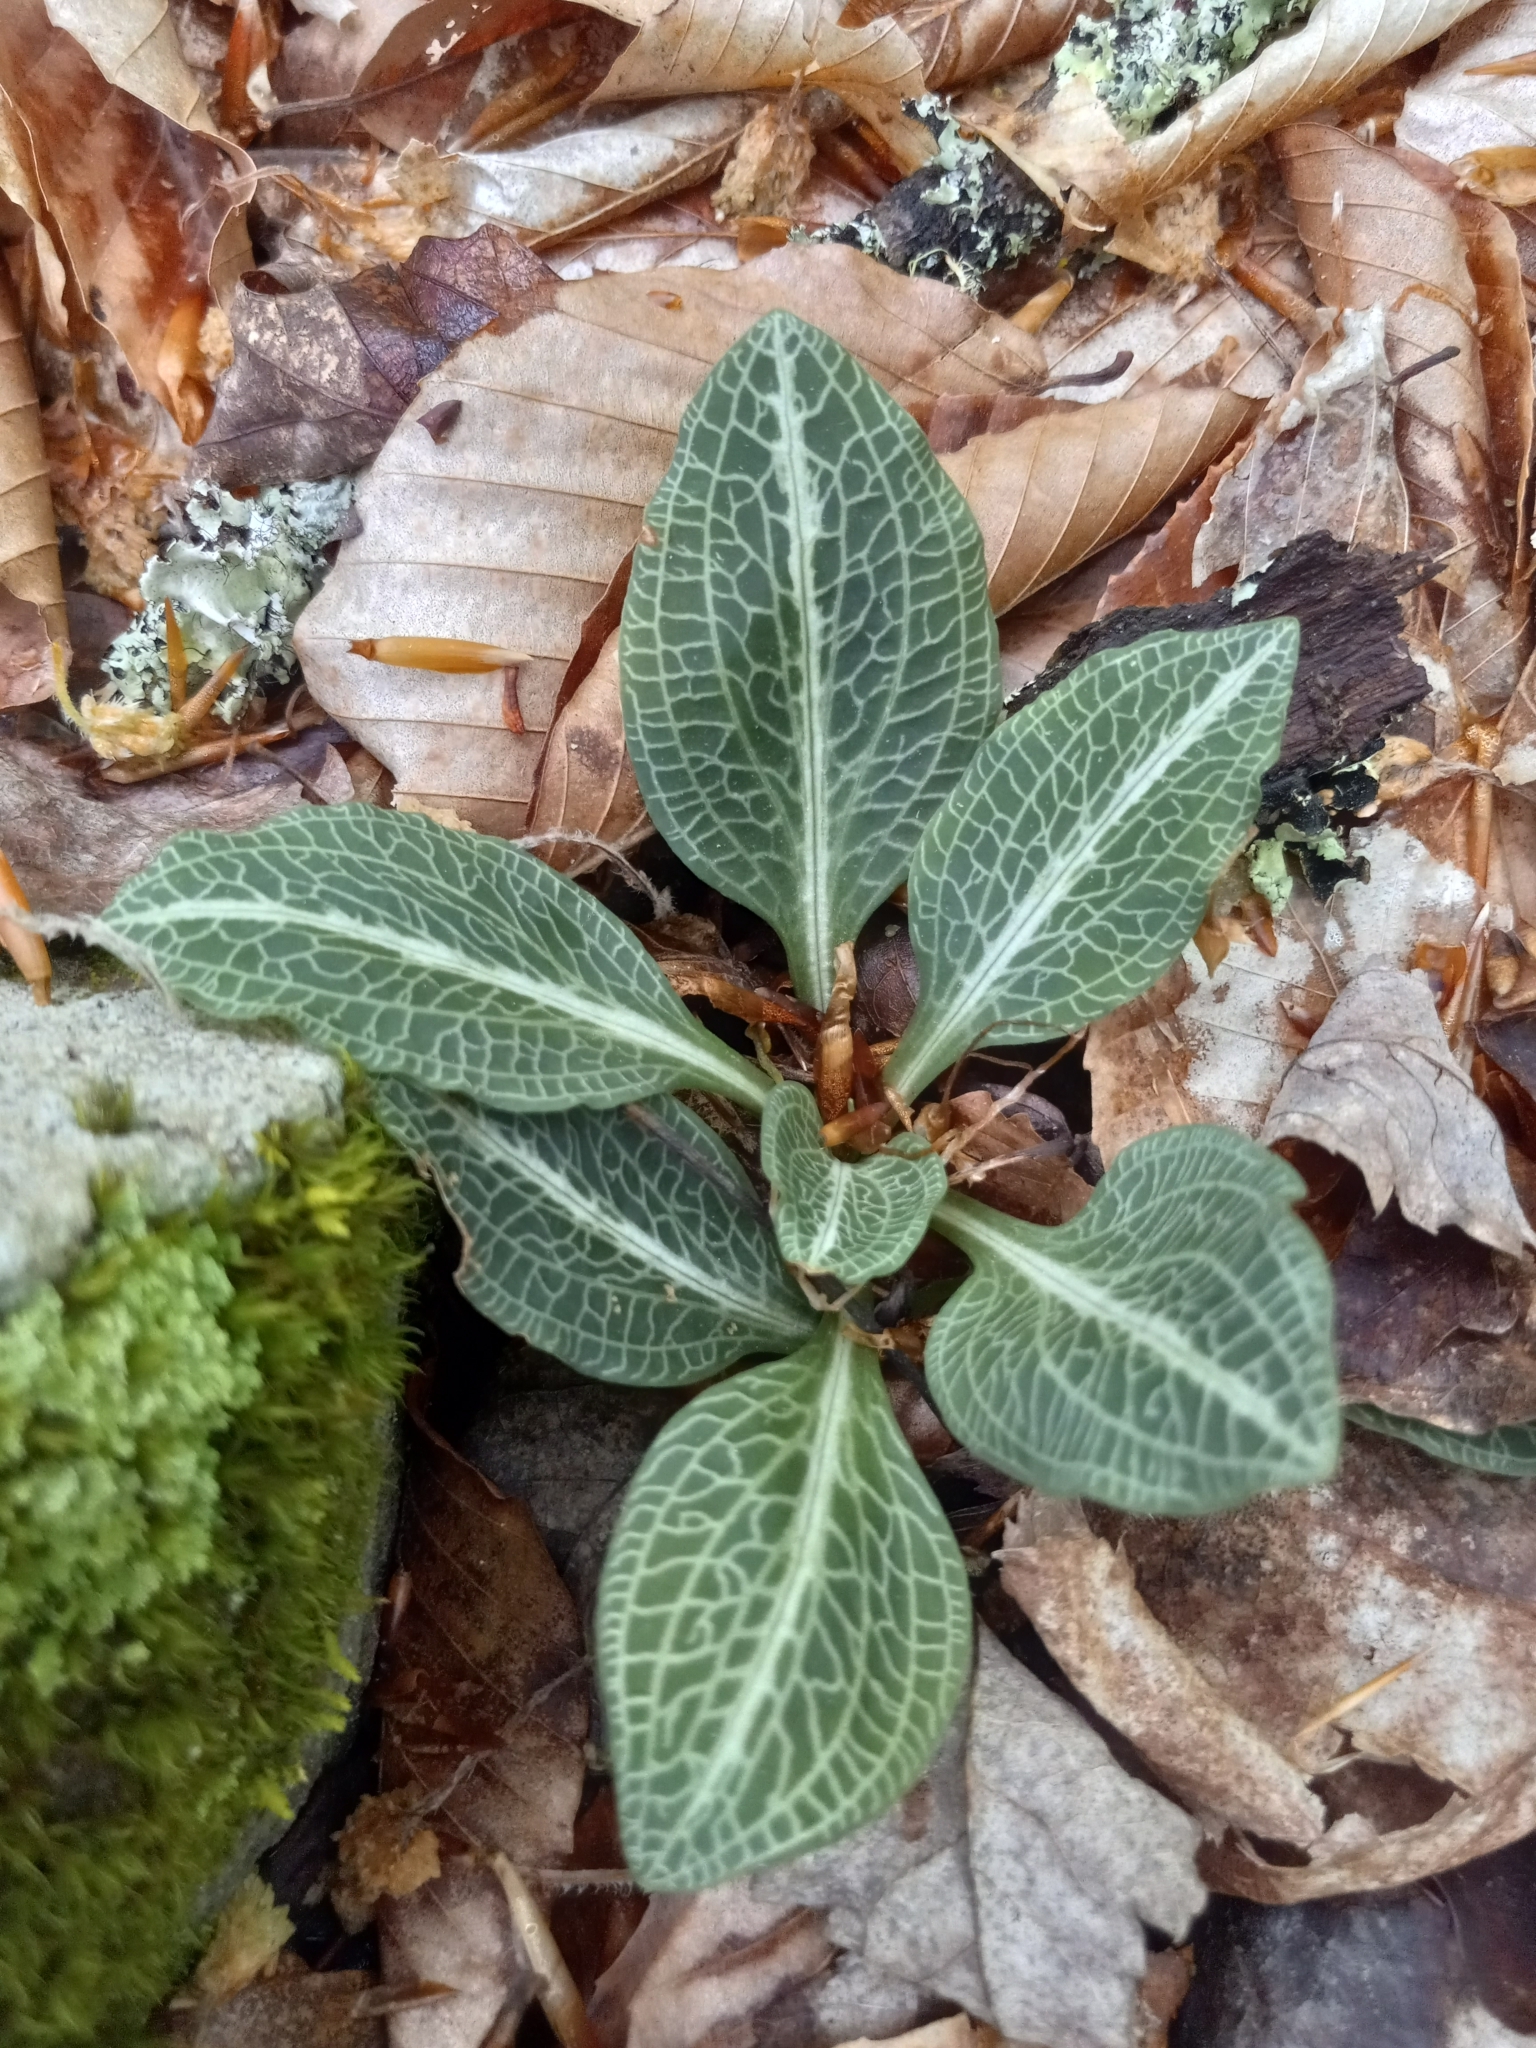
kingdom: Plantae
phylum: Tracheophyta
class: Liliopsida
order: Asparagales
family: Orchidaceae
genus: Goodyera
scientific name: Goodyera pubescens
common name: Downy rattlesnake-plantain
